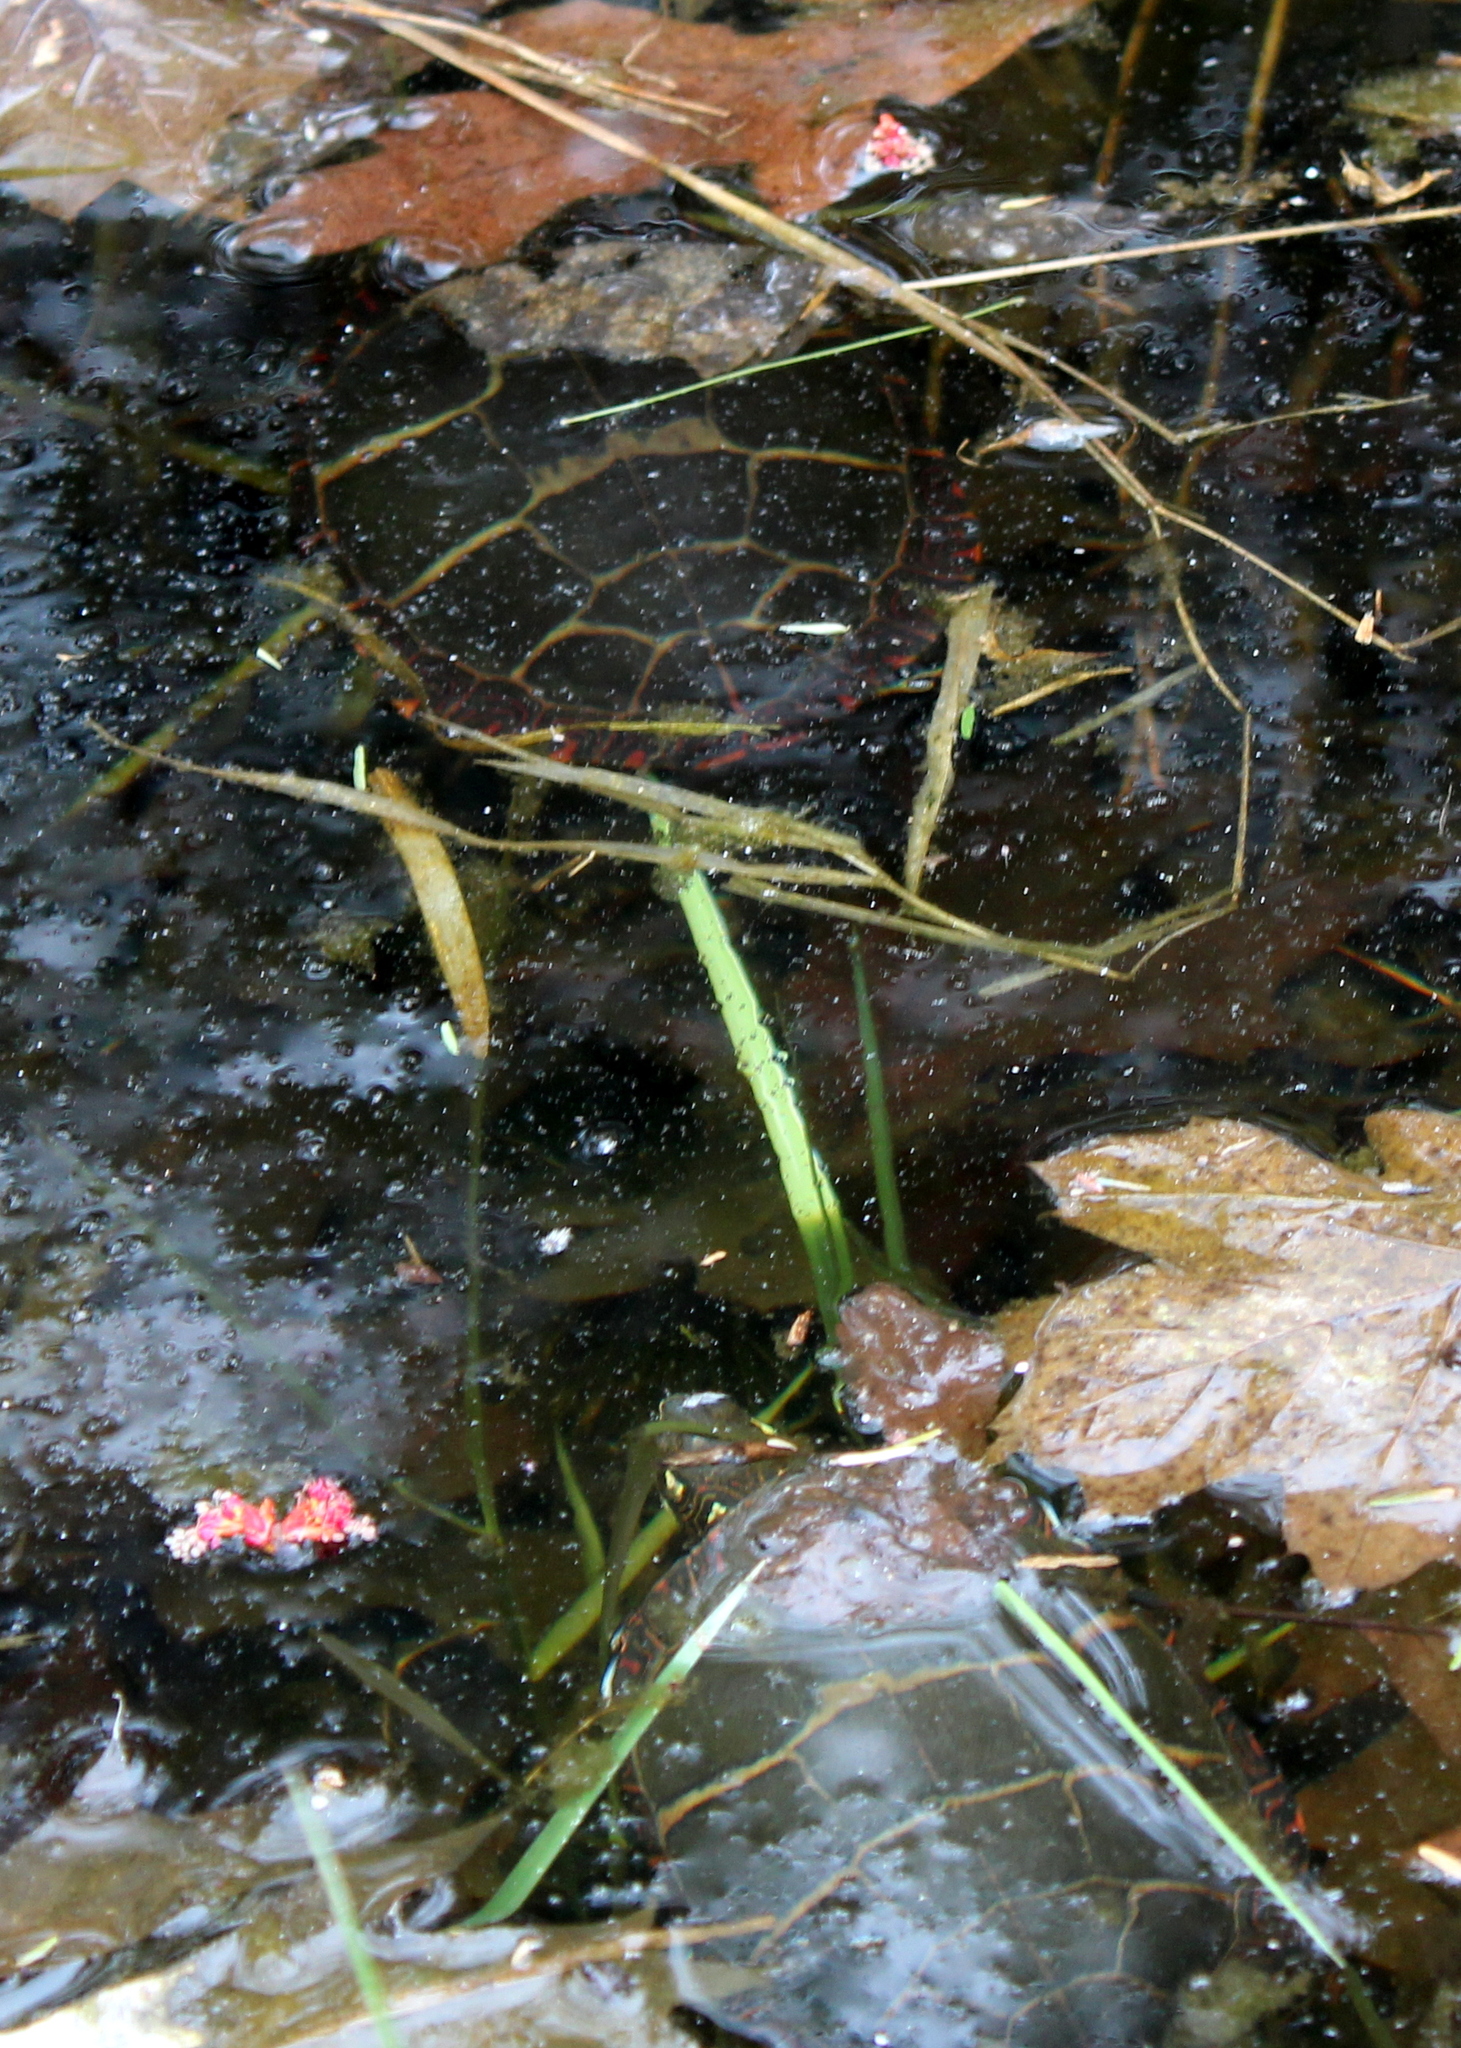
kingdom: Animalia
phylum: Chordata
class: Testudines
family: Emydidae
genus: Chrysemys
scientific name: Chrysemys picta
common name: Painted turtle
